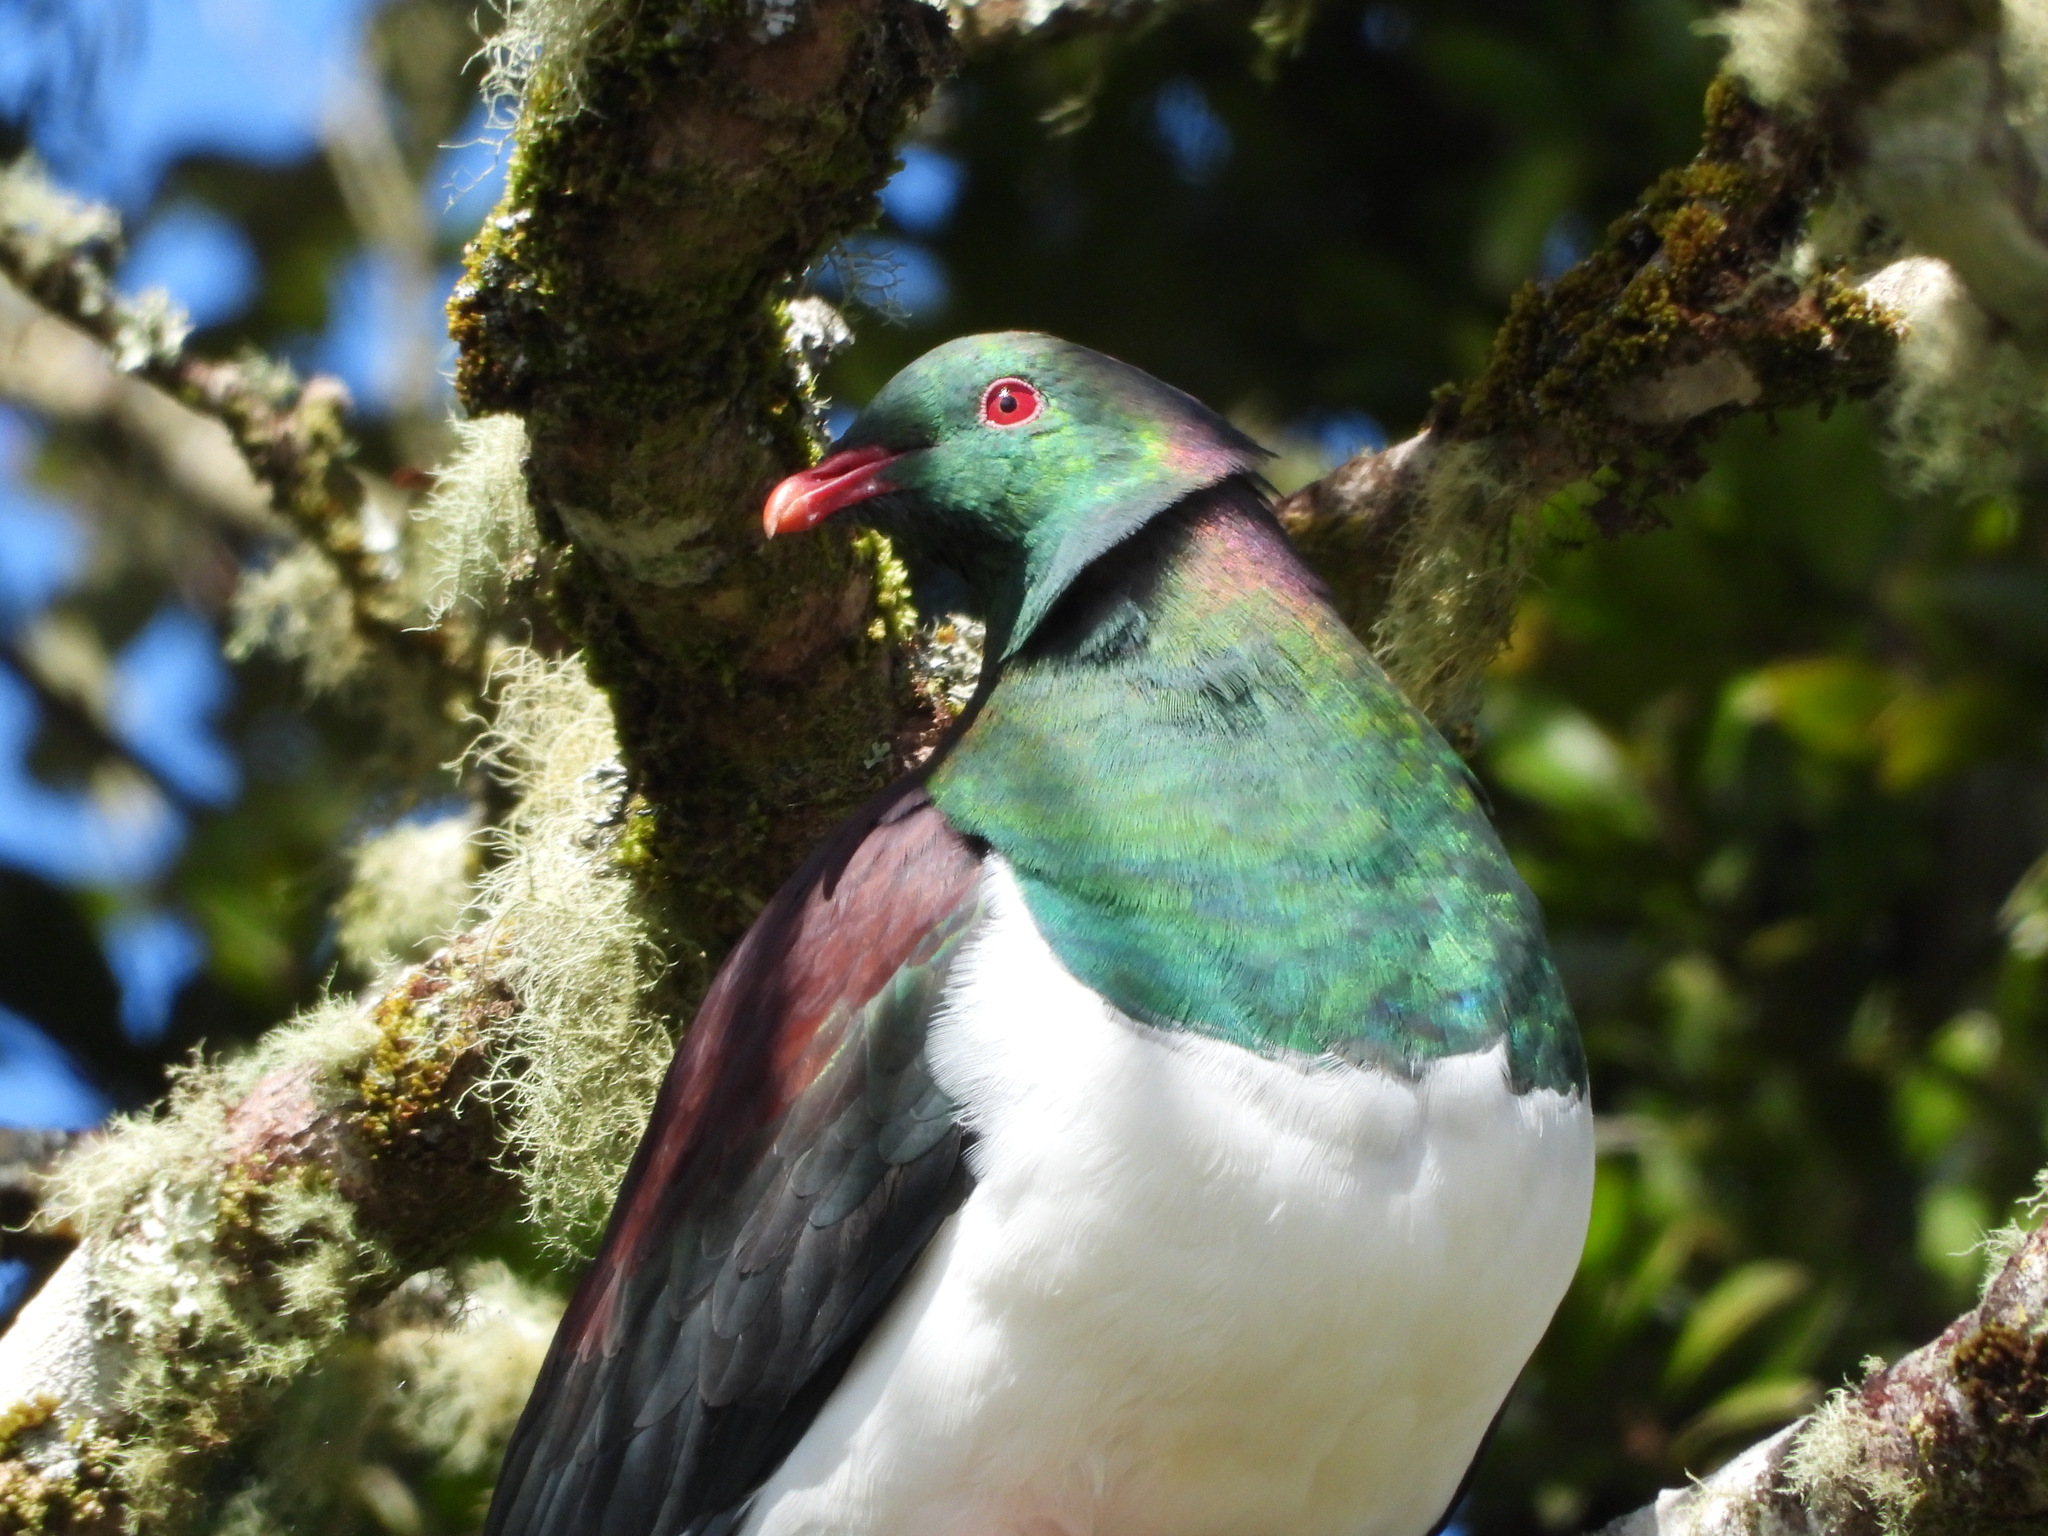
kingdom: Animalia
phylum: Chordata
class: Aves
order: Columbiformes
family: Columbidae
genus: Hemiphaga
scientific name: Hemiphaga novaeseelandiae
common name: New zealand pigeon
